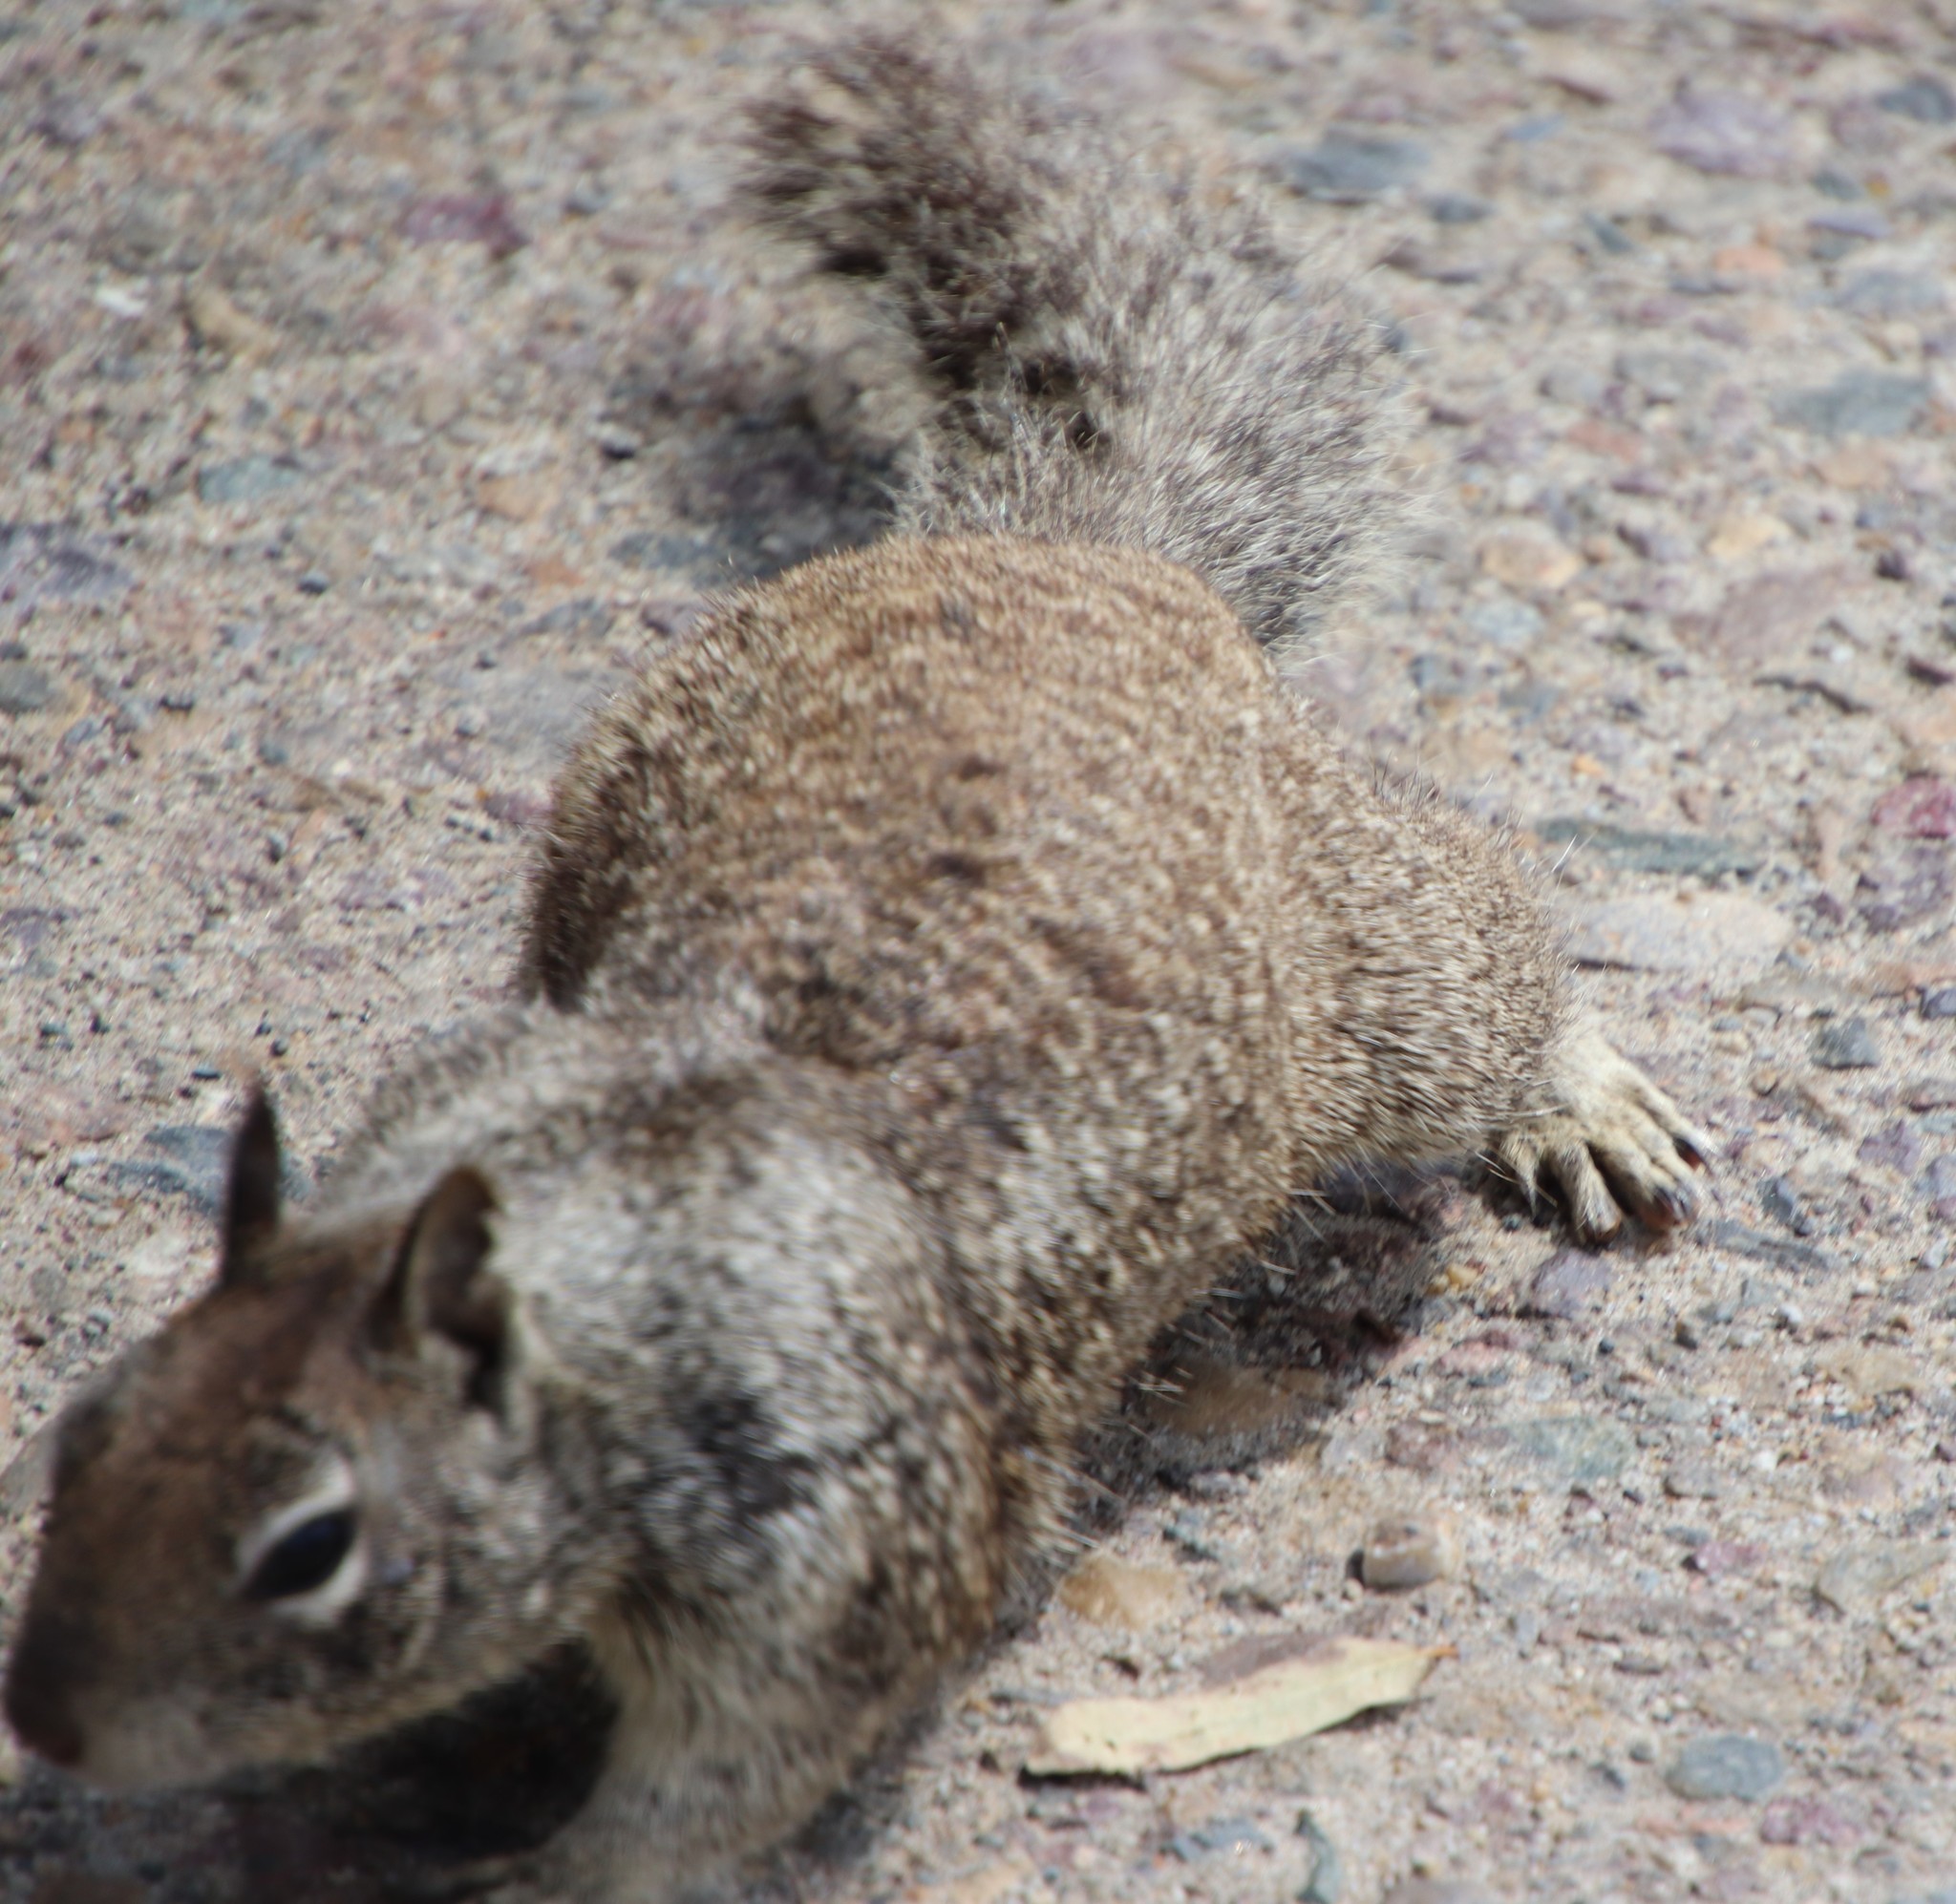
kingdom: Animalia
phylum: Chordata
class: Mammalia
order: Rodentia
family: Sciuridae
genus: Otospermophilus
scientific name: Otospermophilus beecheyi
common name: California ground squirrel
